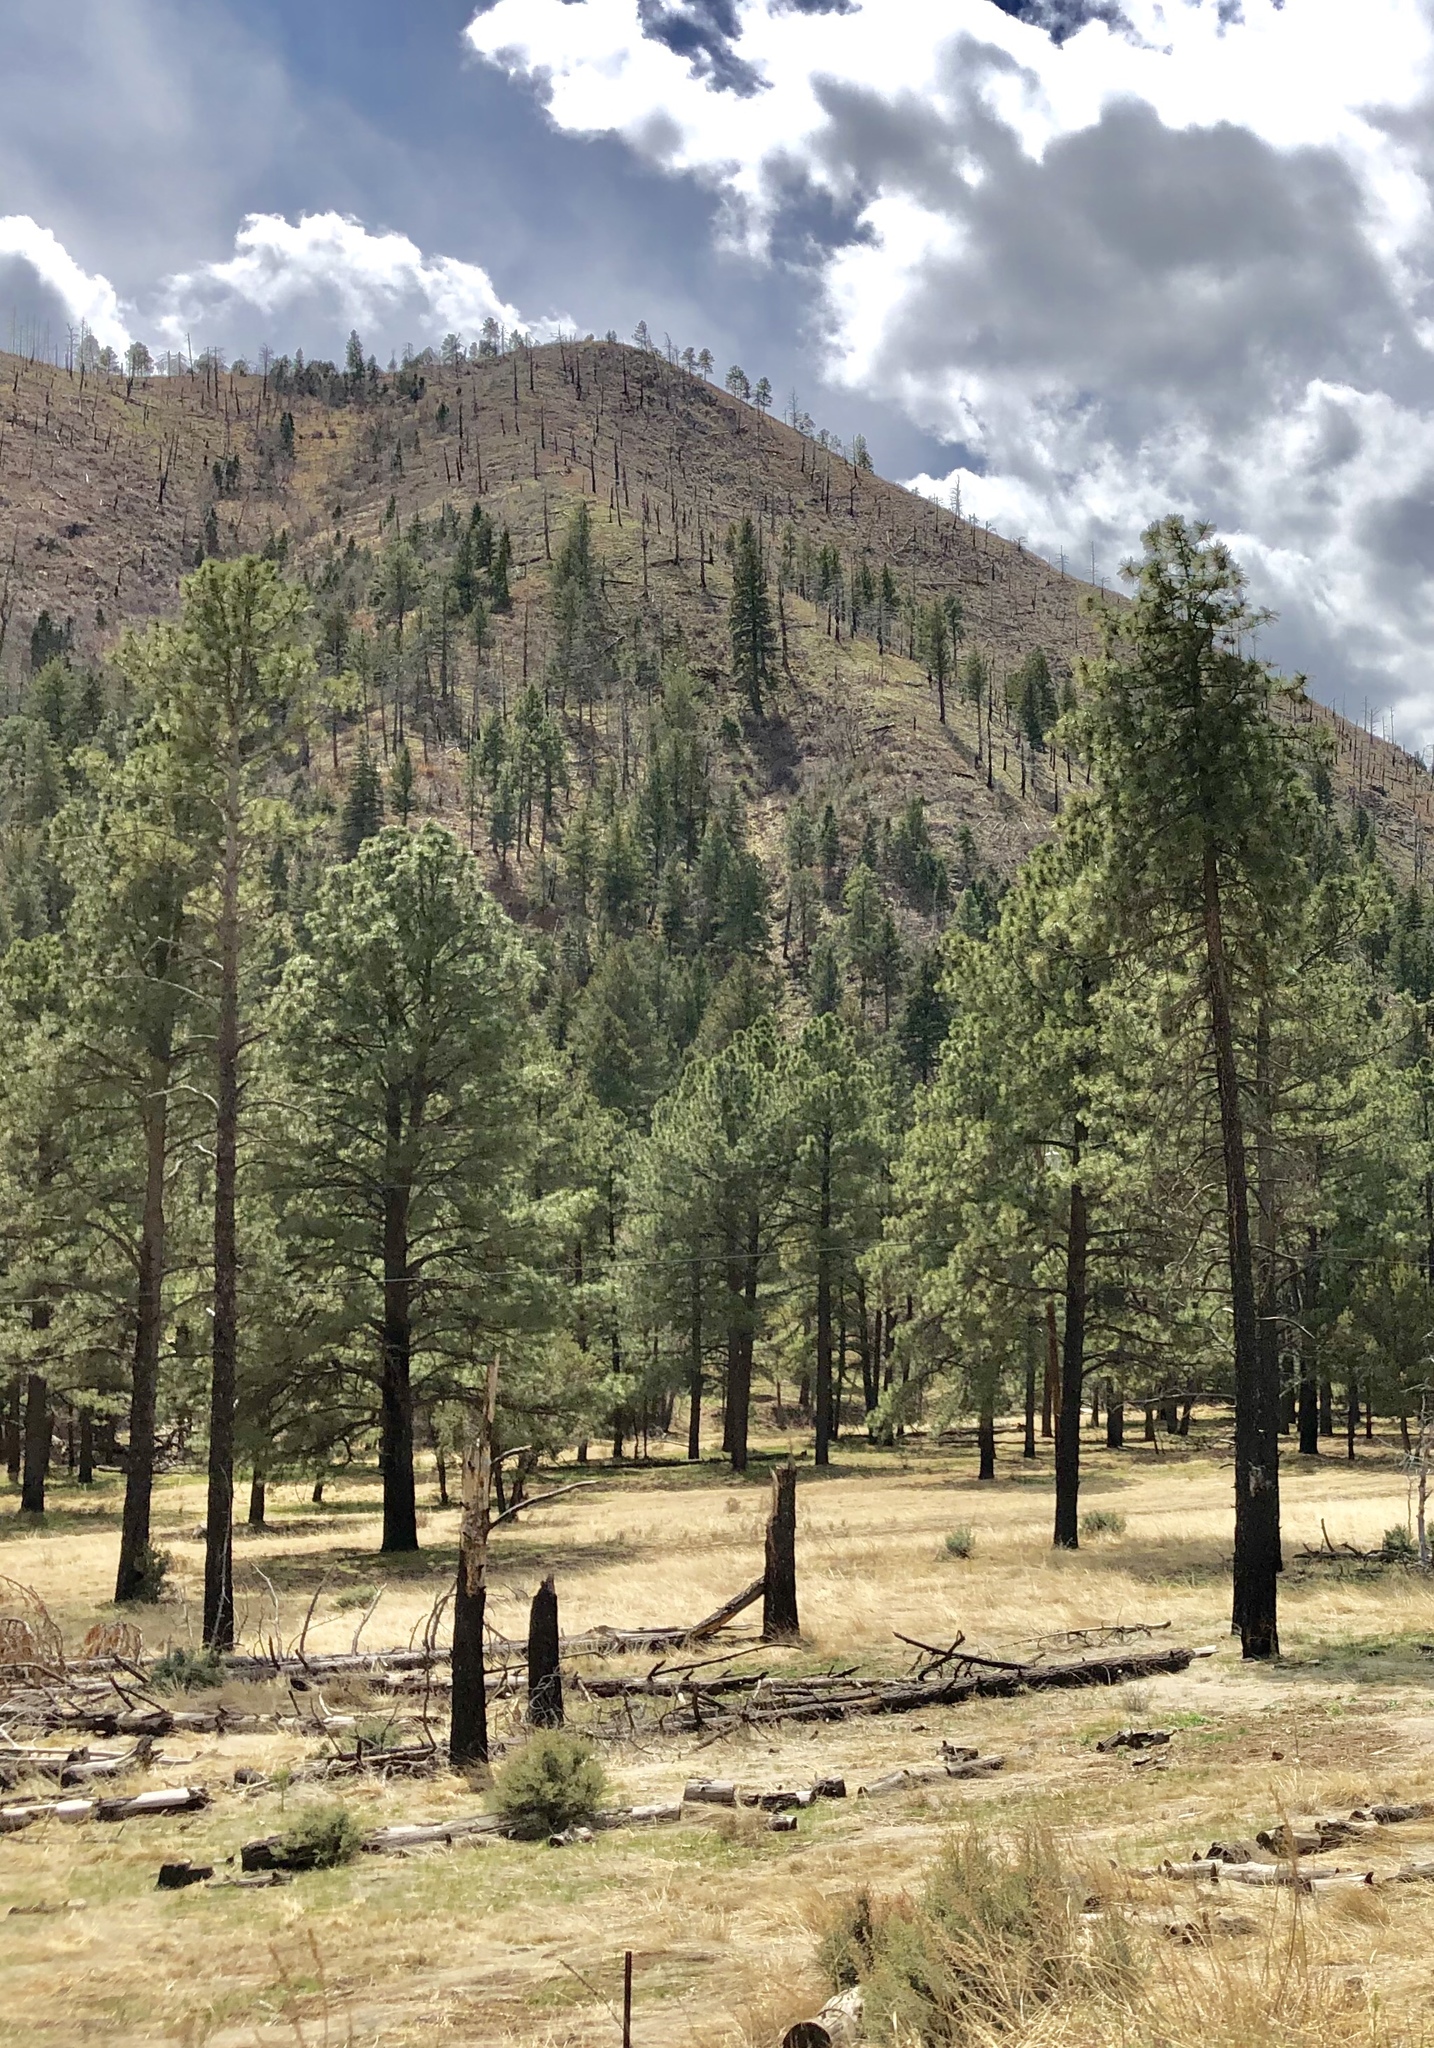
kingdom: Plantae
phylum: Tracheophyta
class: Pinopsida
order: Pinales
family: Pinaceae
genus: Pinus
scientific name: Pinus ponderosa
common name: Western yellow-pine
